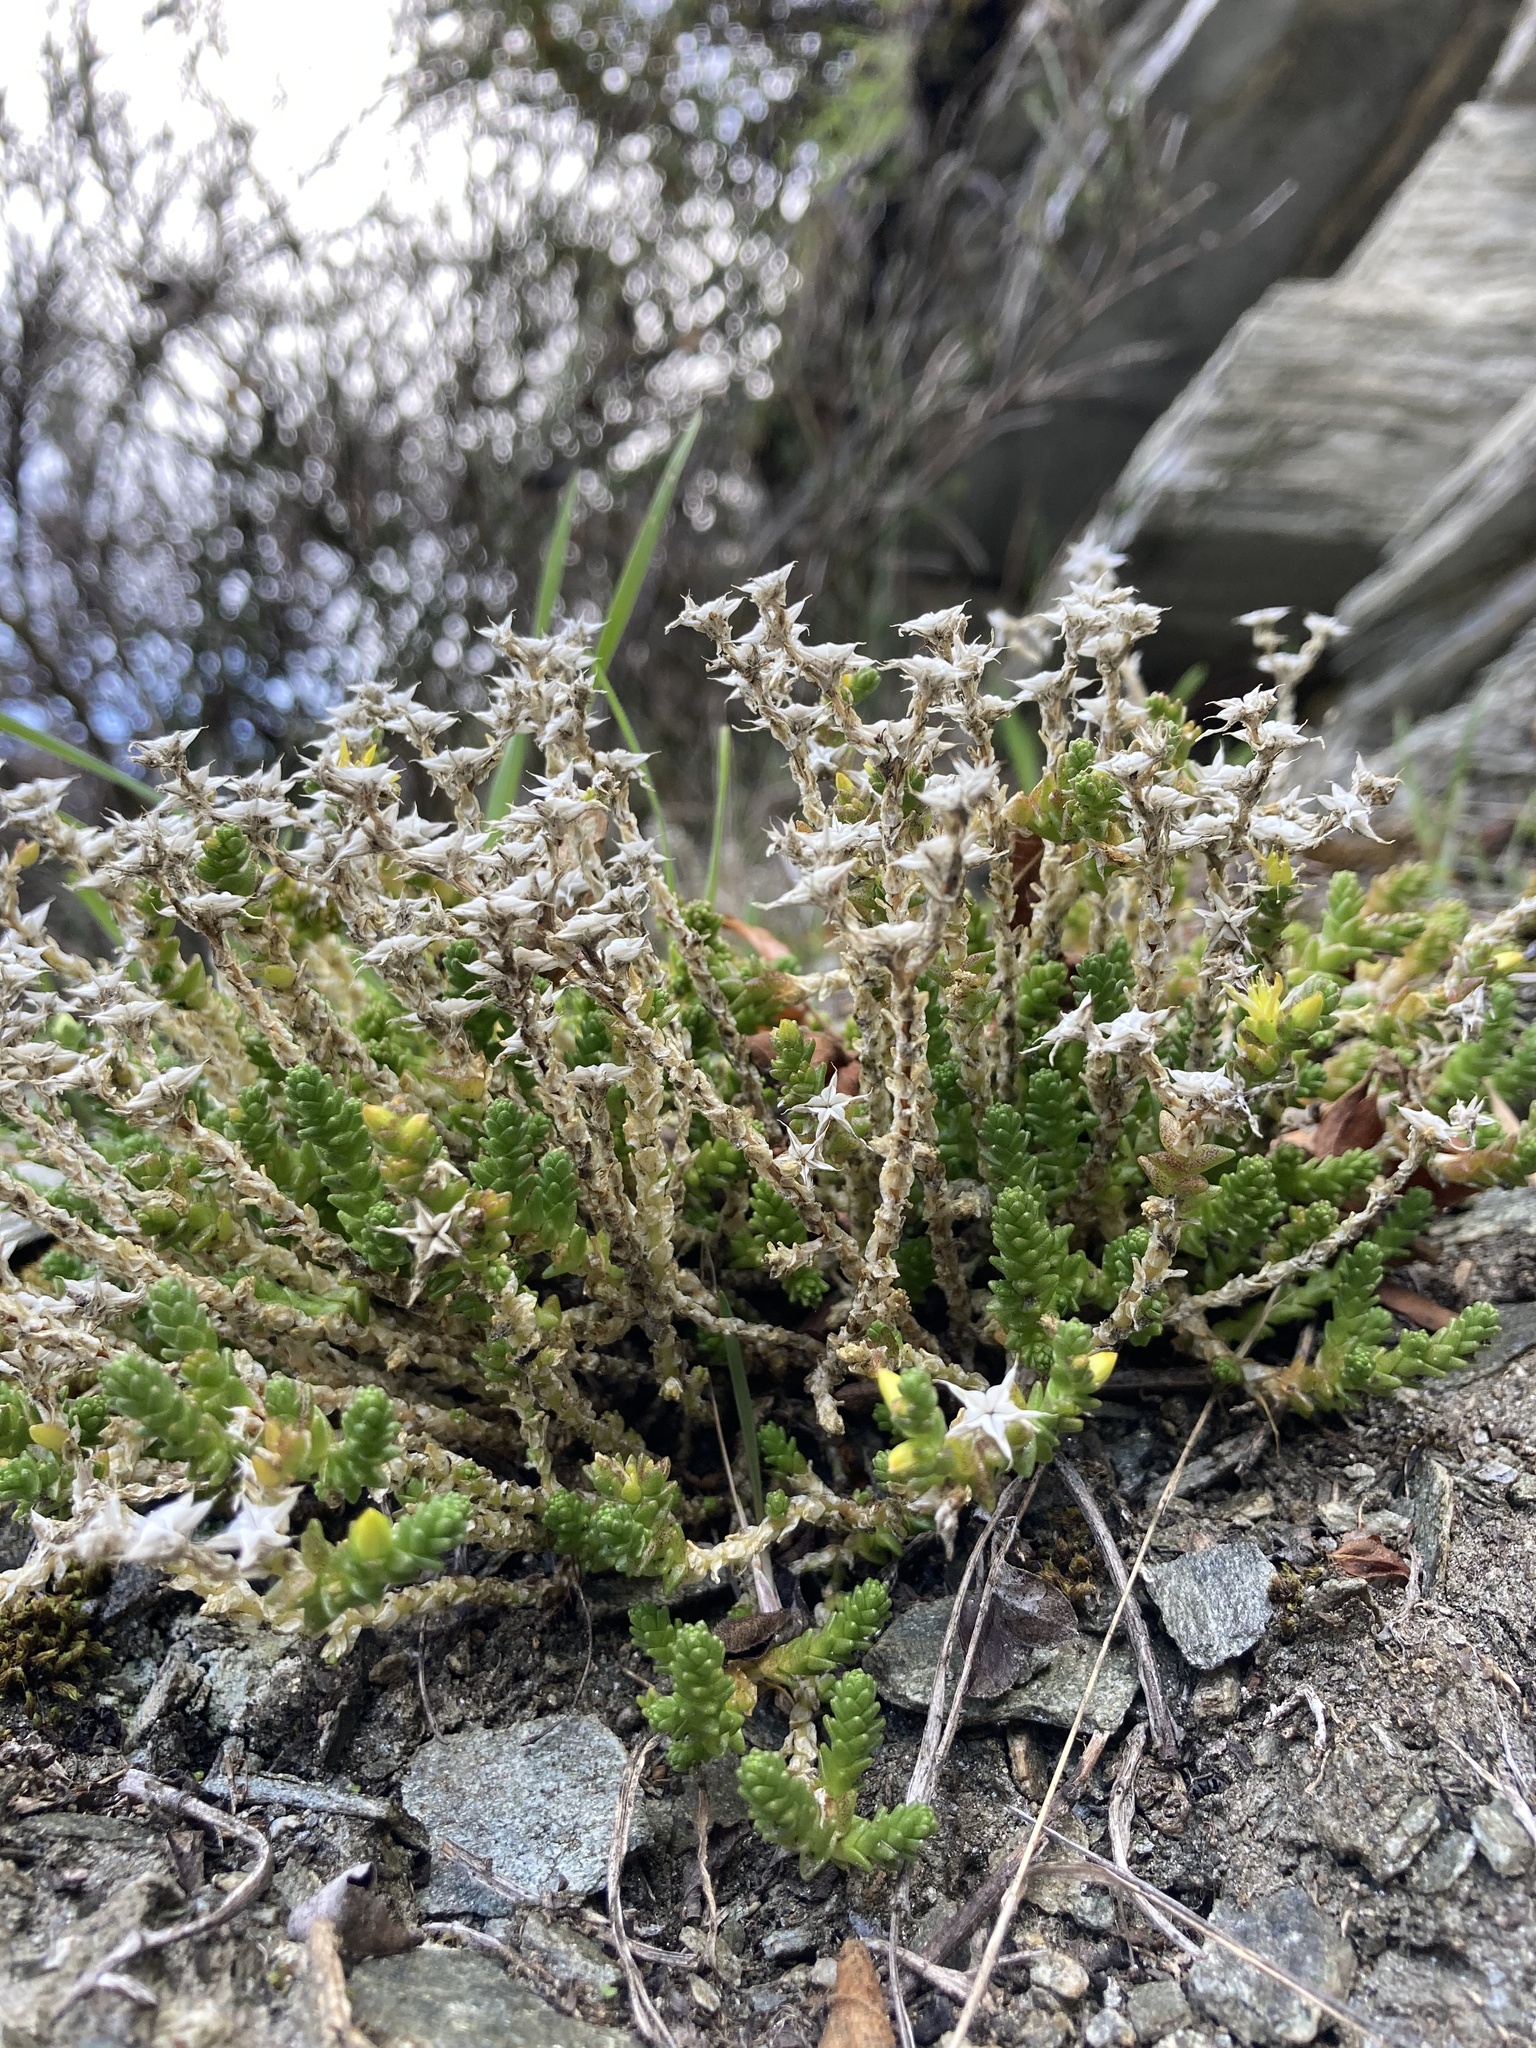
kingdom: Plantae
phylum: Tracheophyta
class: Magnoliopsida
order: Saxifragales
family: Crassulaceae
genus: Sedum
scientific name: Sedum acre
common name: Biting stonecrop
